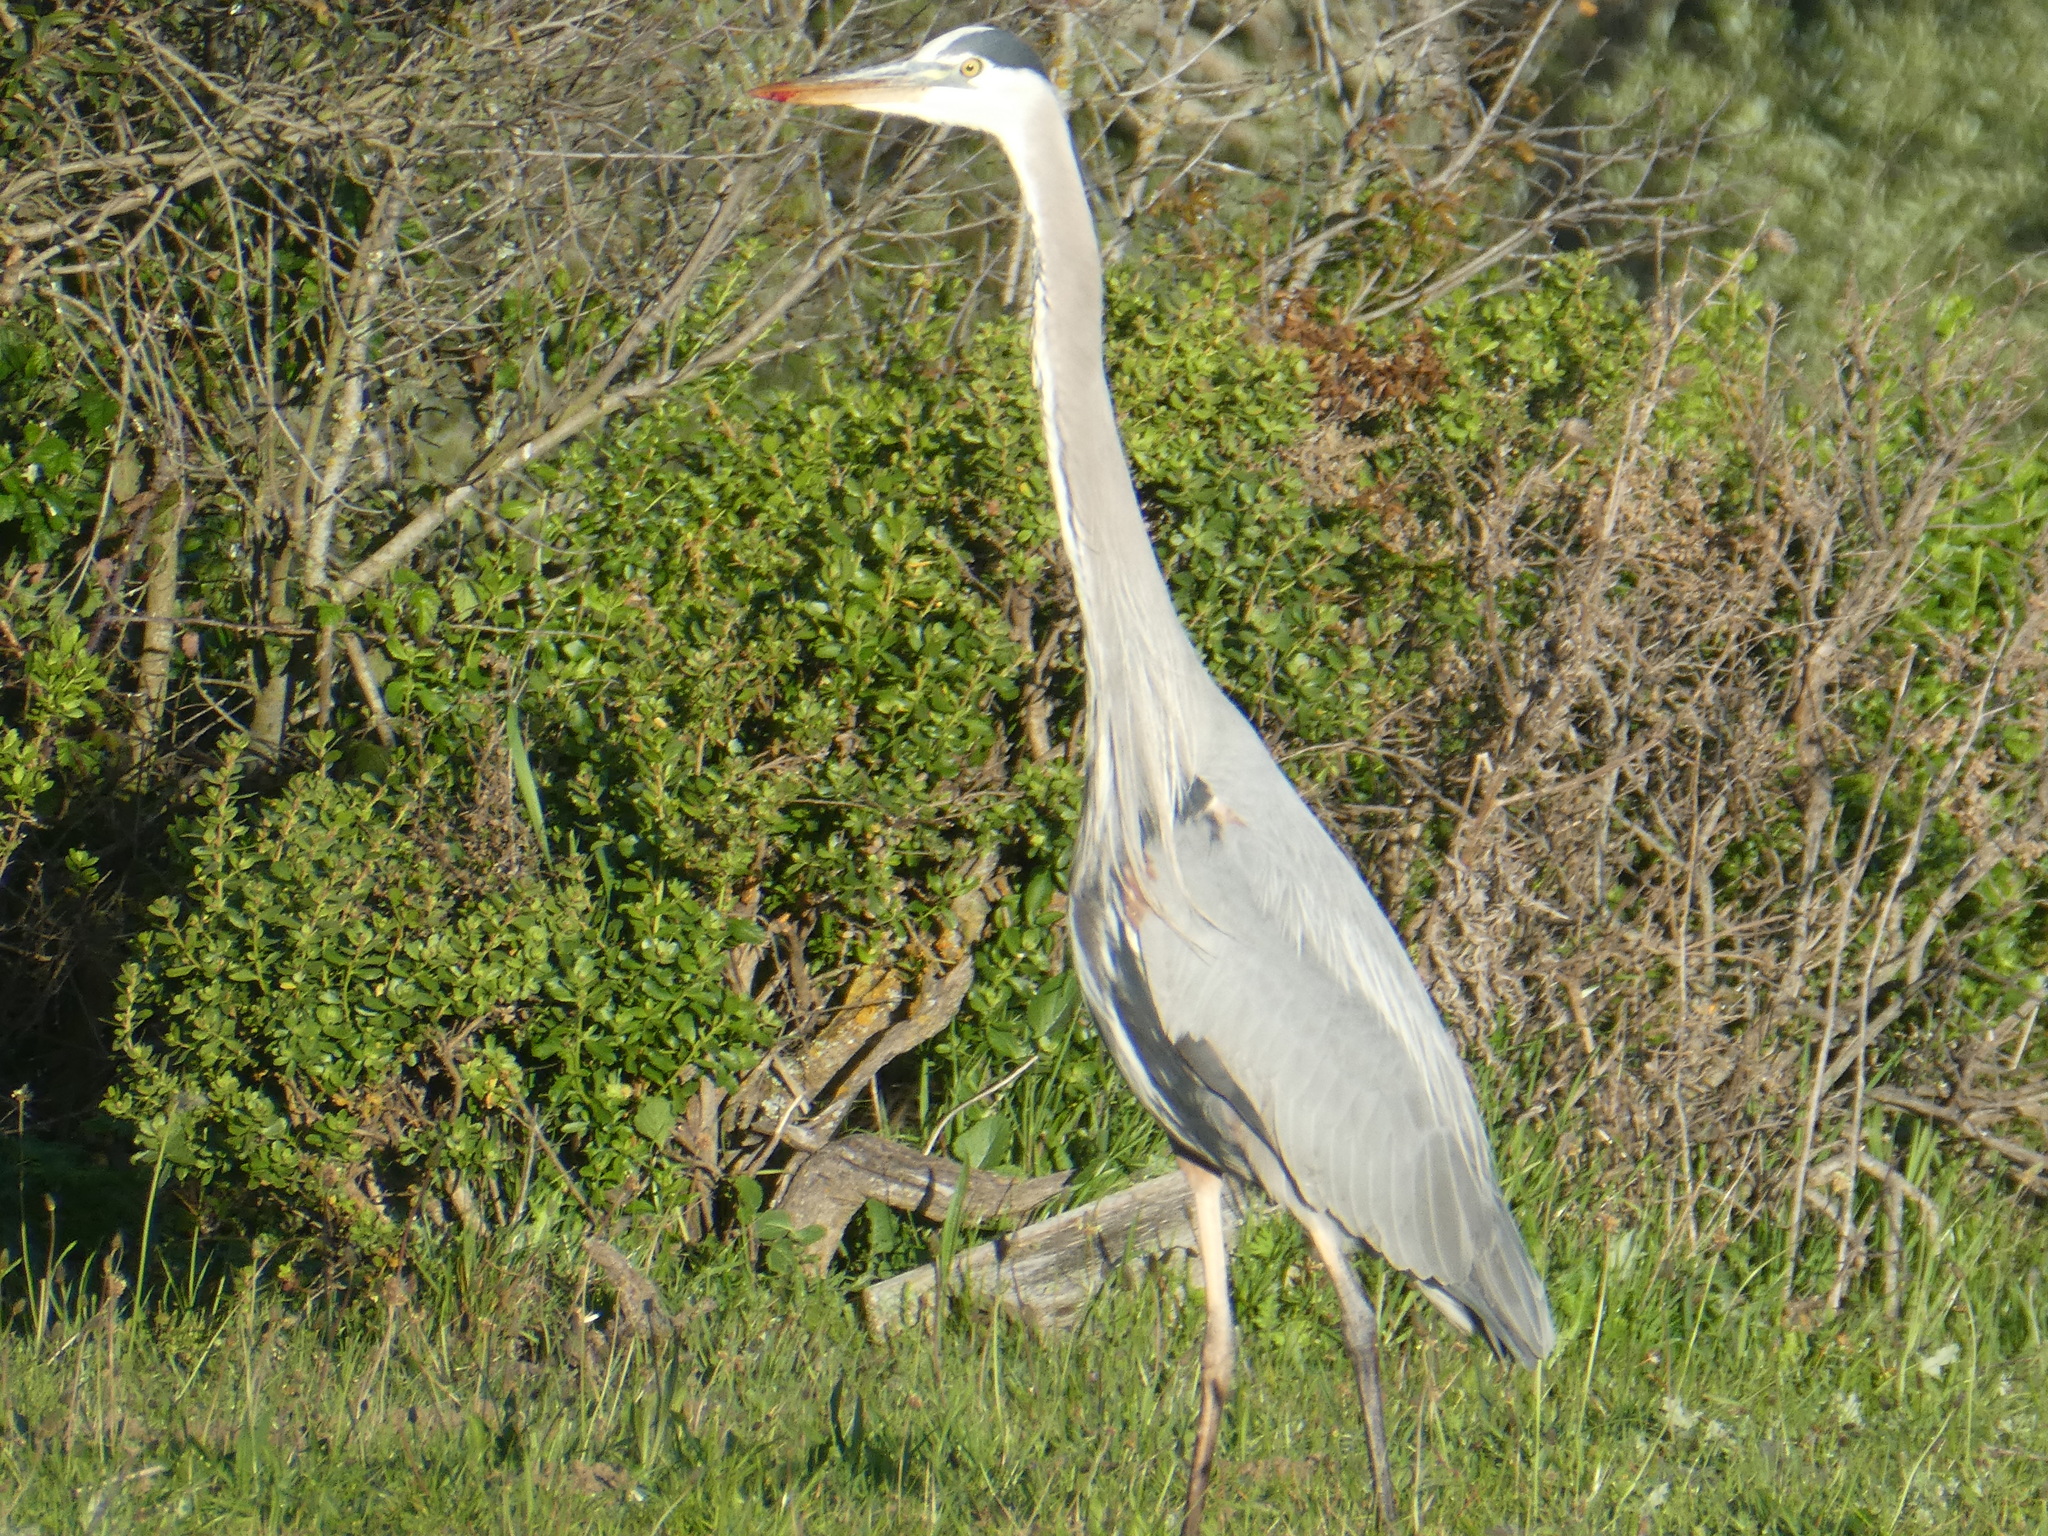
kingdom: Animalia
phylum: Chordata
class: Aves
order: Pelecaniformes
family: Ardeidae
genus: Ardea
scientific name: Ardea herodias
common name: Great blue heron
